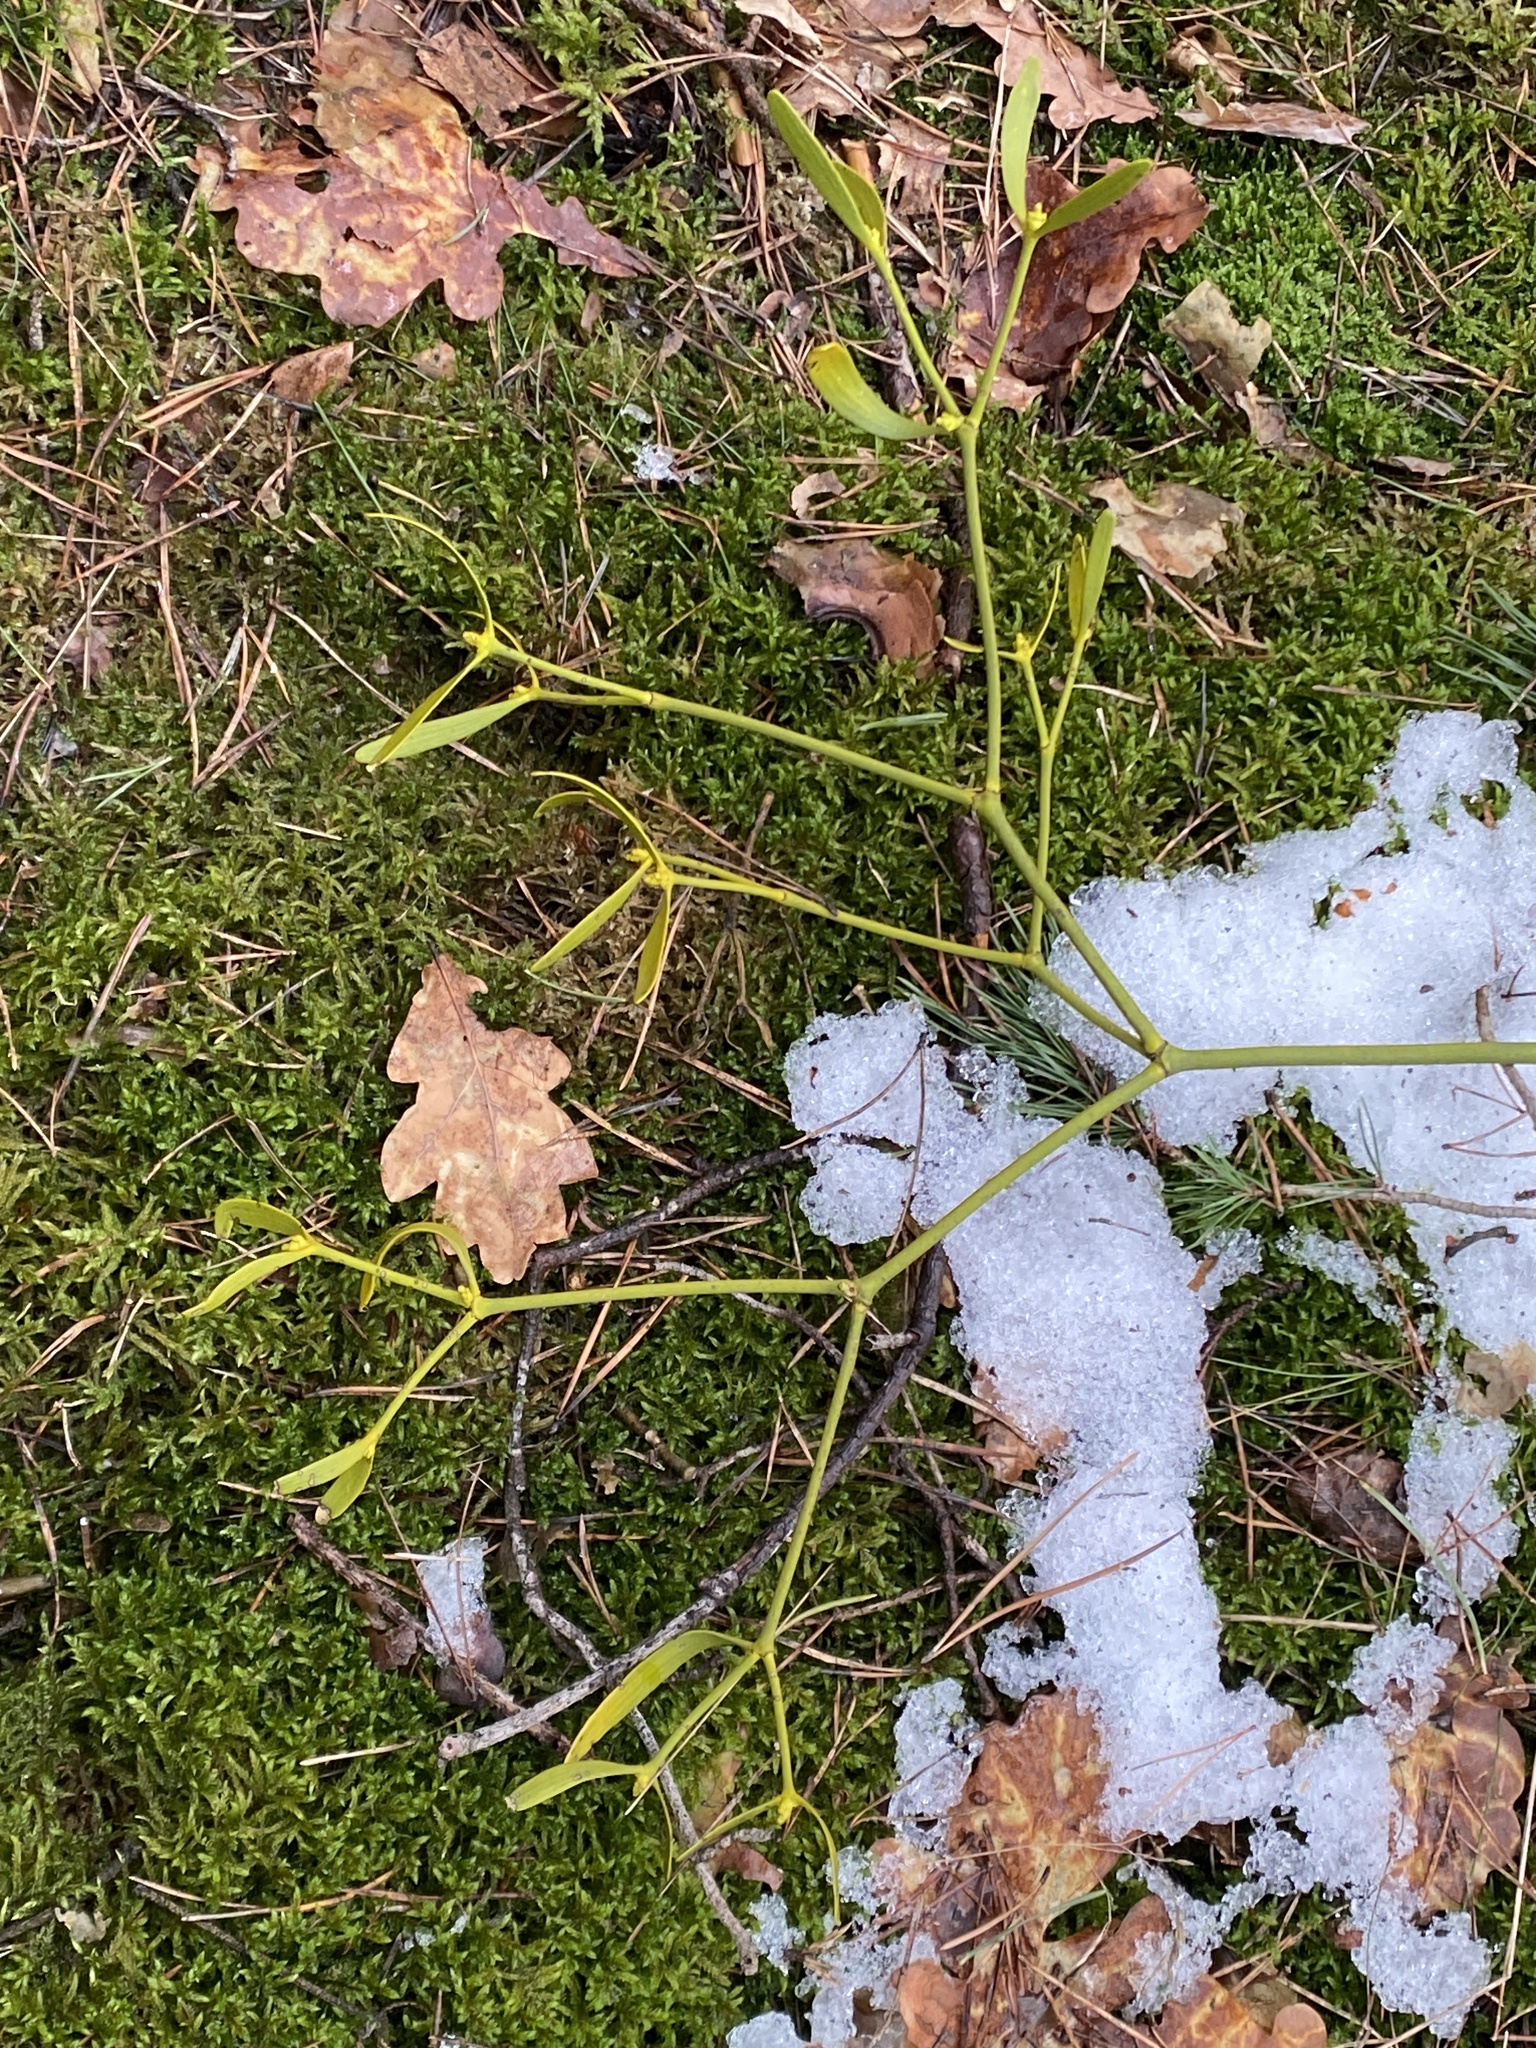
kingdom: Plantae
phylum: Tracheophyta
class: Magnoliopsida
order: Santalales
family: Viscaceae
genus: Viscum
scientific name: Viscum laxum
